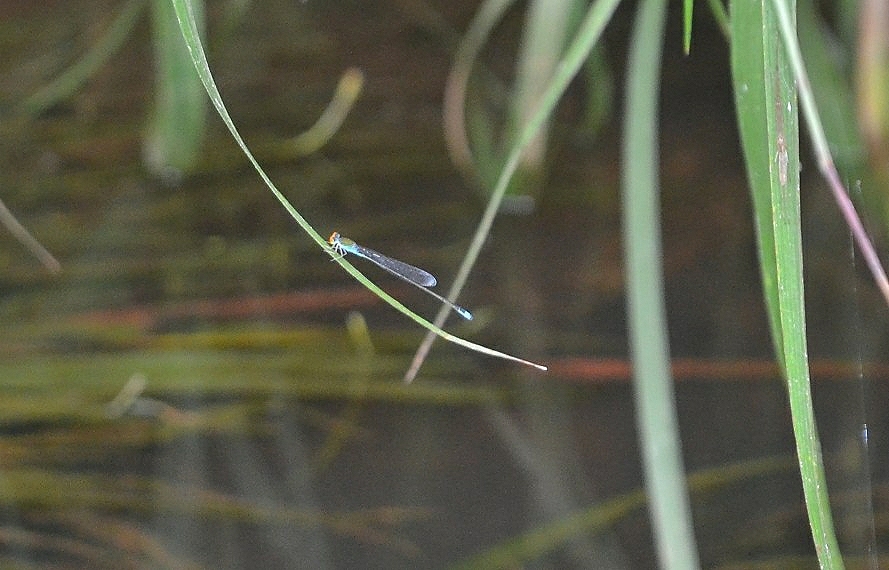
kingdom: Animalia
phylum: Arthropoda
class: Insecta
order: Odonata
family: Coenagrionidae
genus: Pseudagrion
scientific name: Pseudagrion rubriceps
